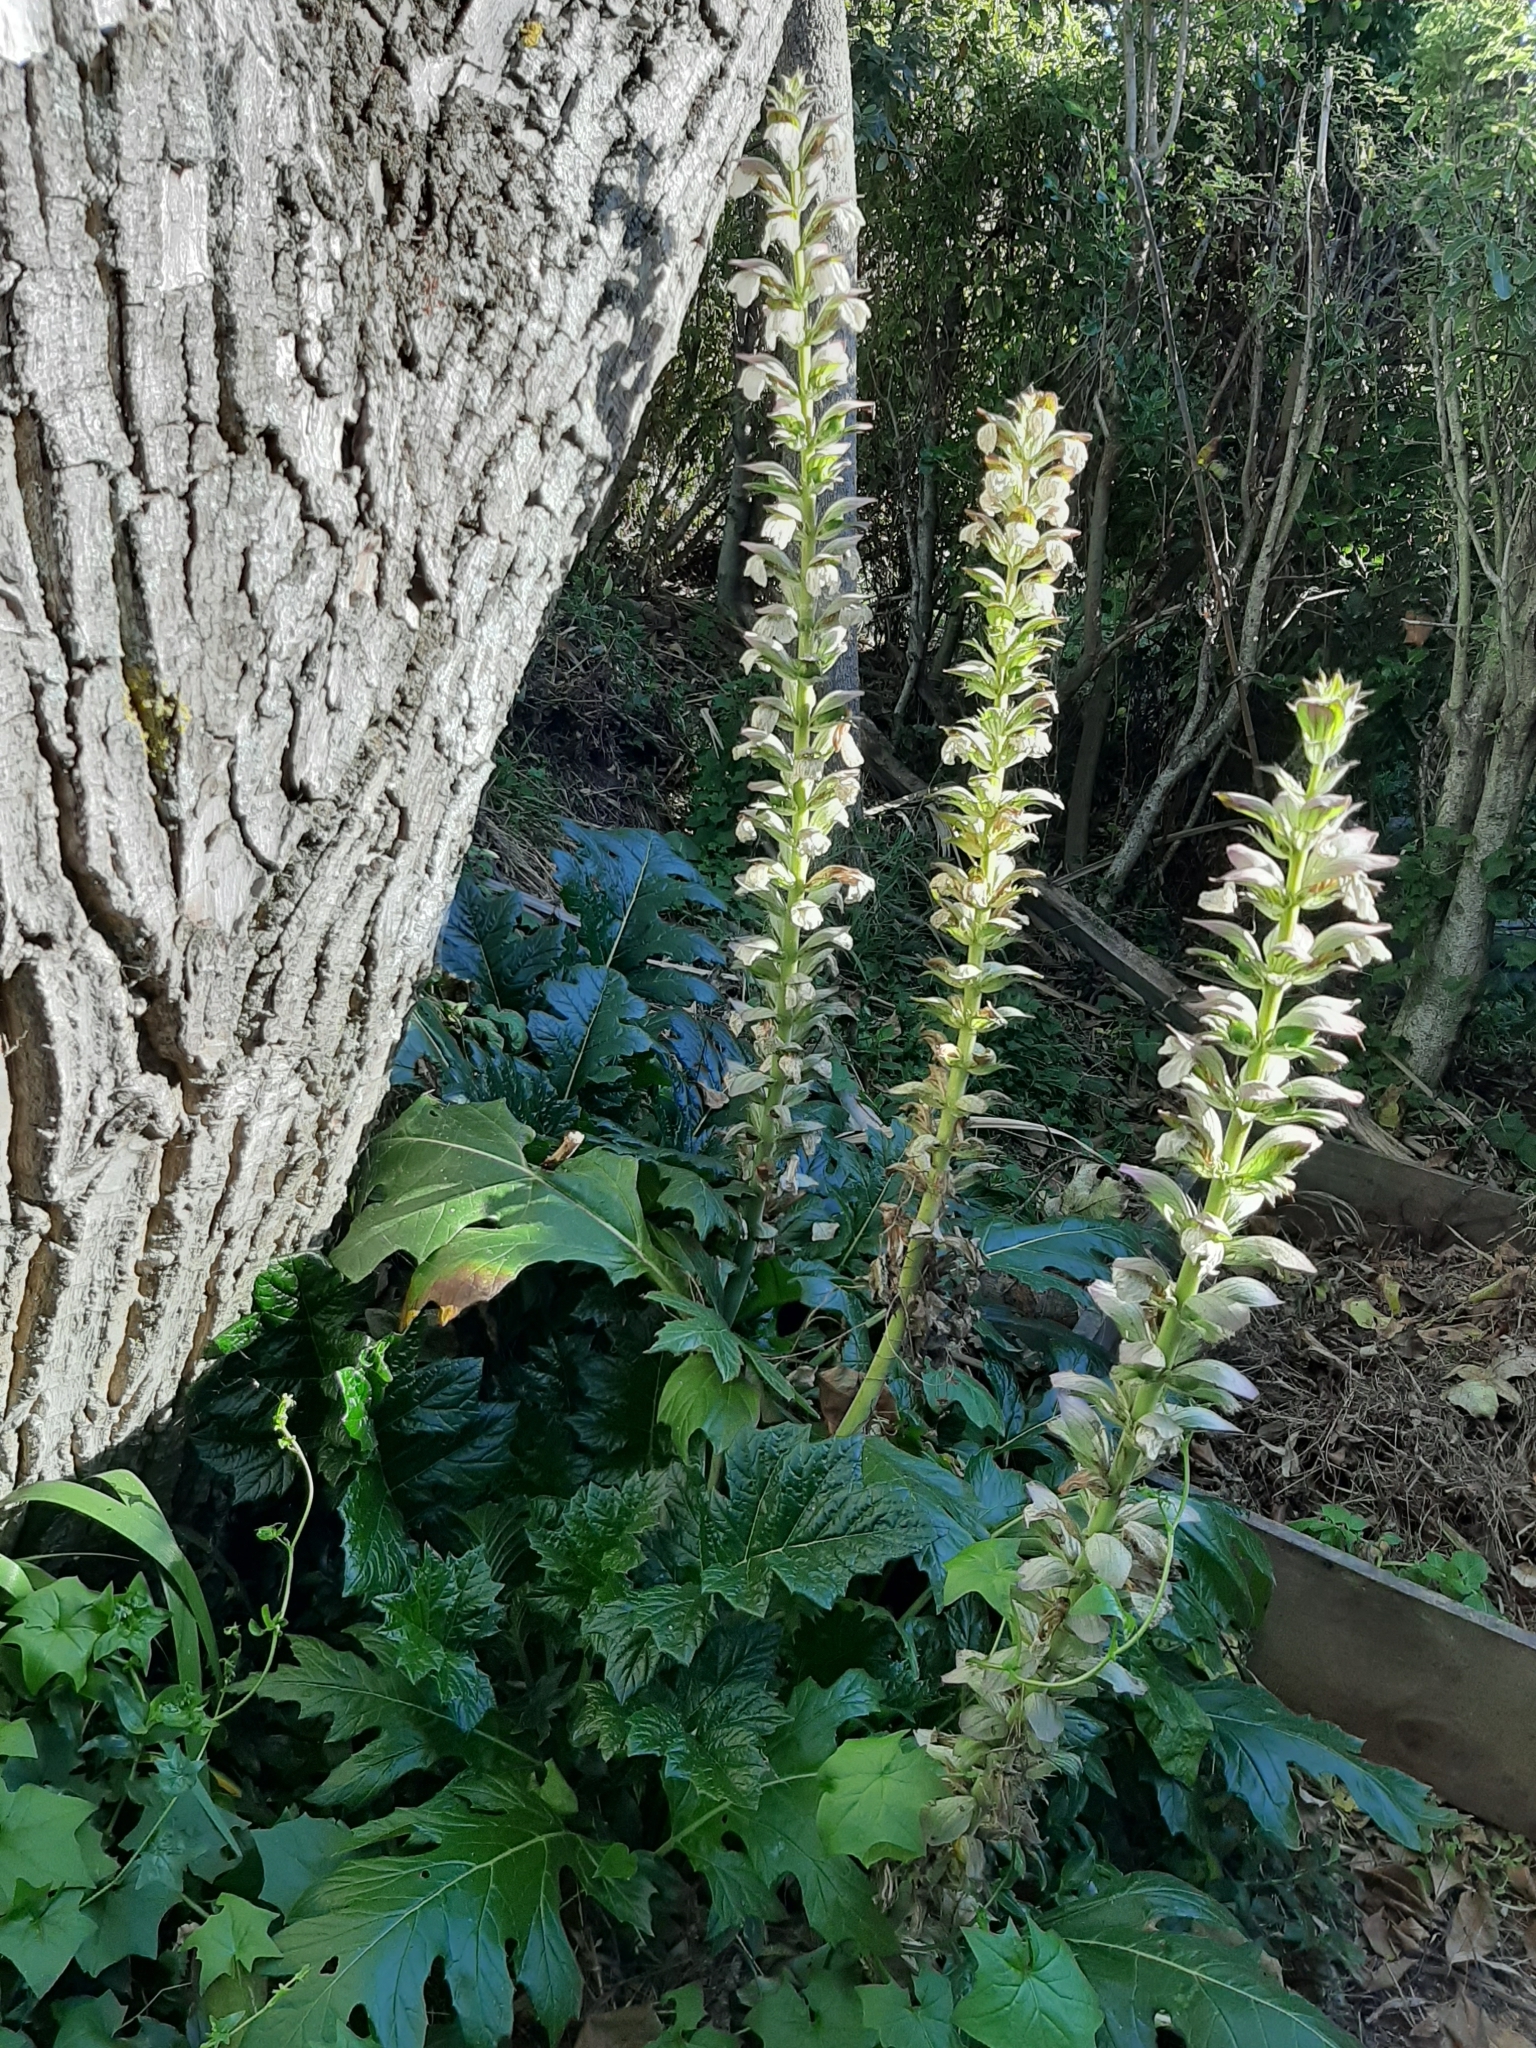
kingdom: Plantae
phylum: Tracheophyta
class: Magnoliopsida
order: Lamiales
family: Acanthaceae
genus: Acanthus
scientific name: Acanthus mollis
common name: Bear's-breech
